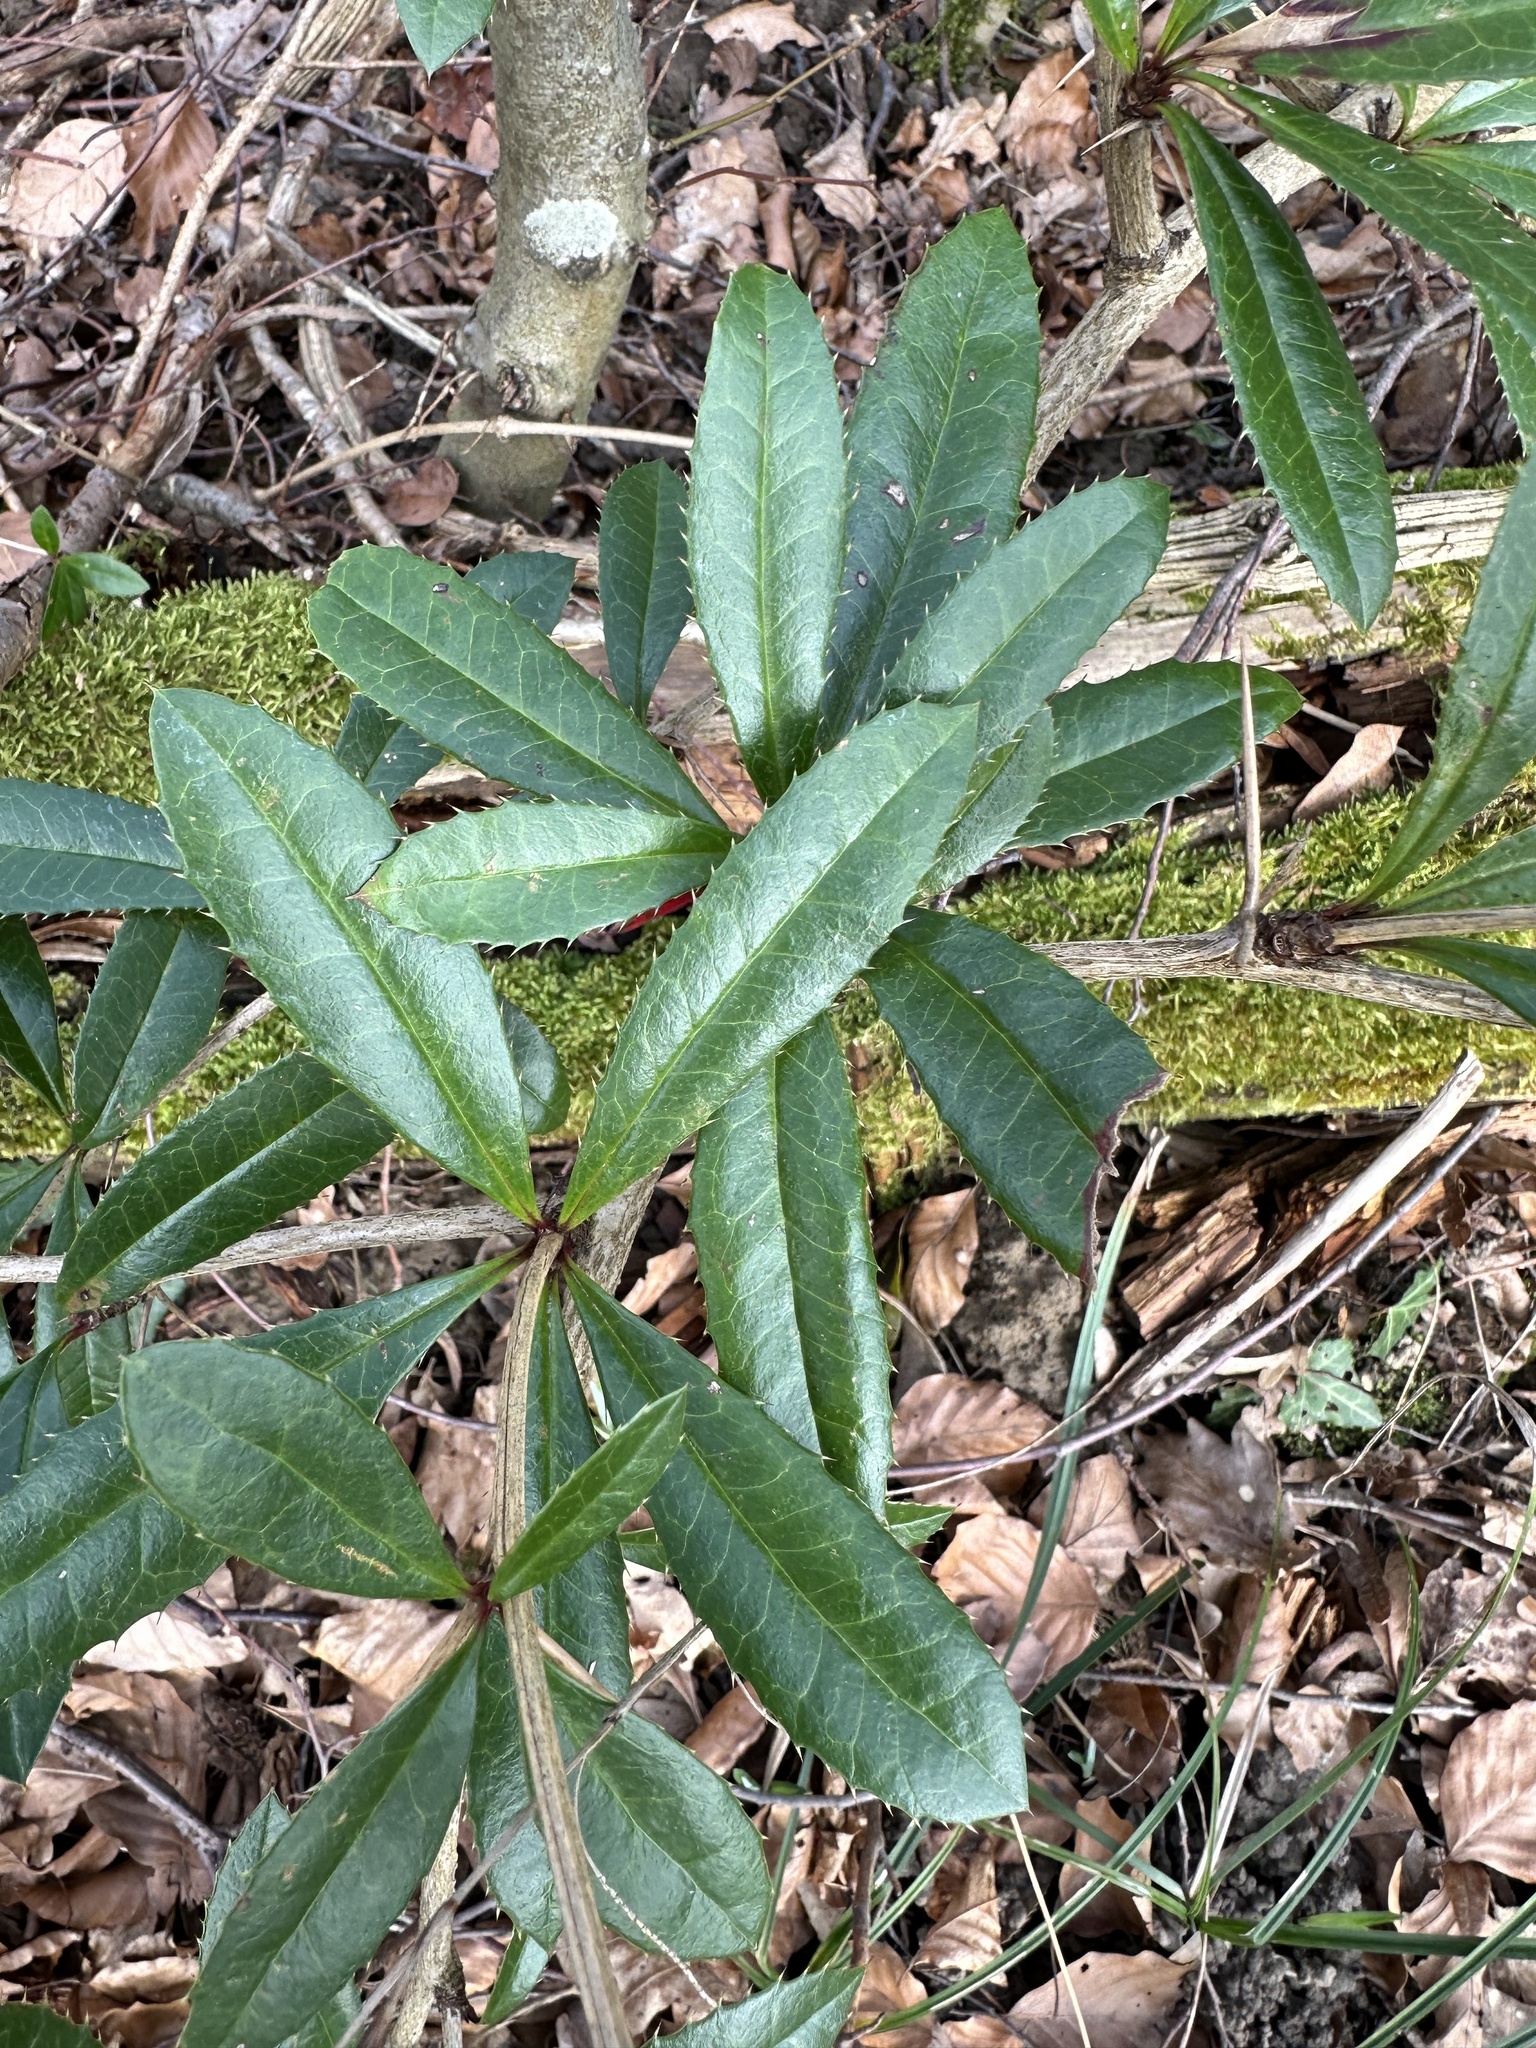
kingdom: Plantae
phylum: Tracheophyta
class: Magnoliopsida
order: Ranunculales
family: Berberidaceae
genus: Berberis
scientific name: Berberis julianae
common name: Wintergreen barberry
